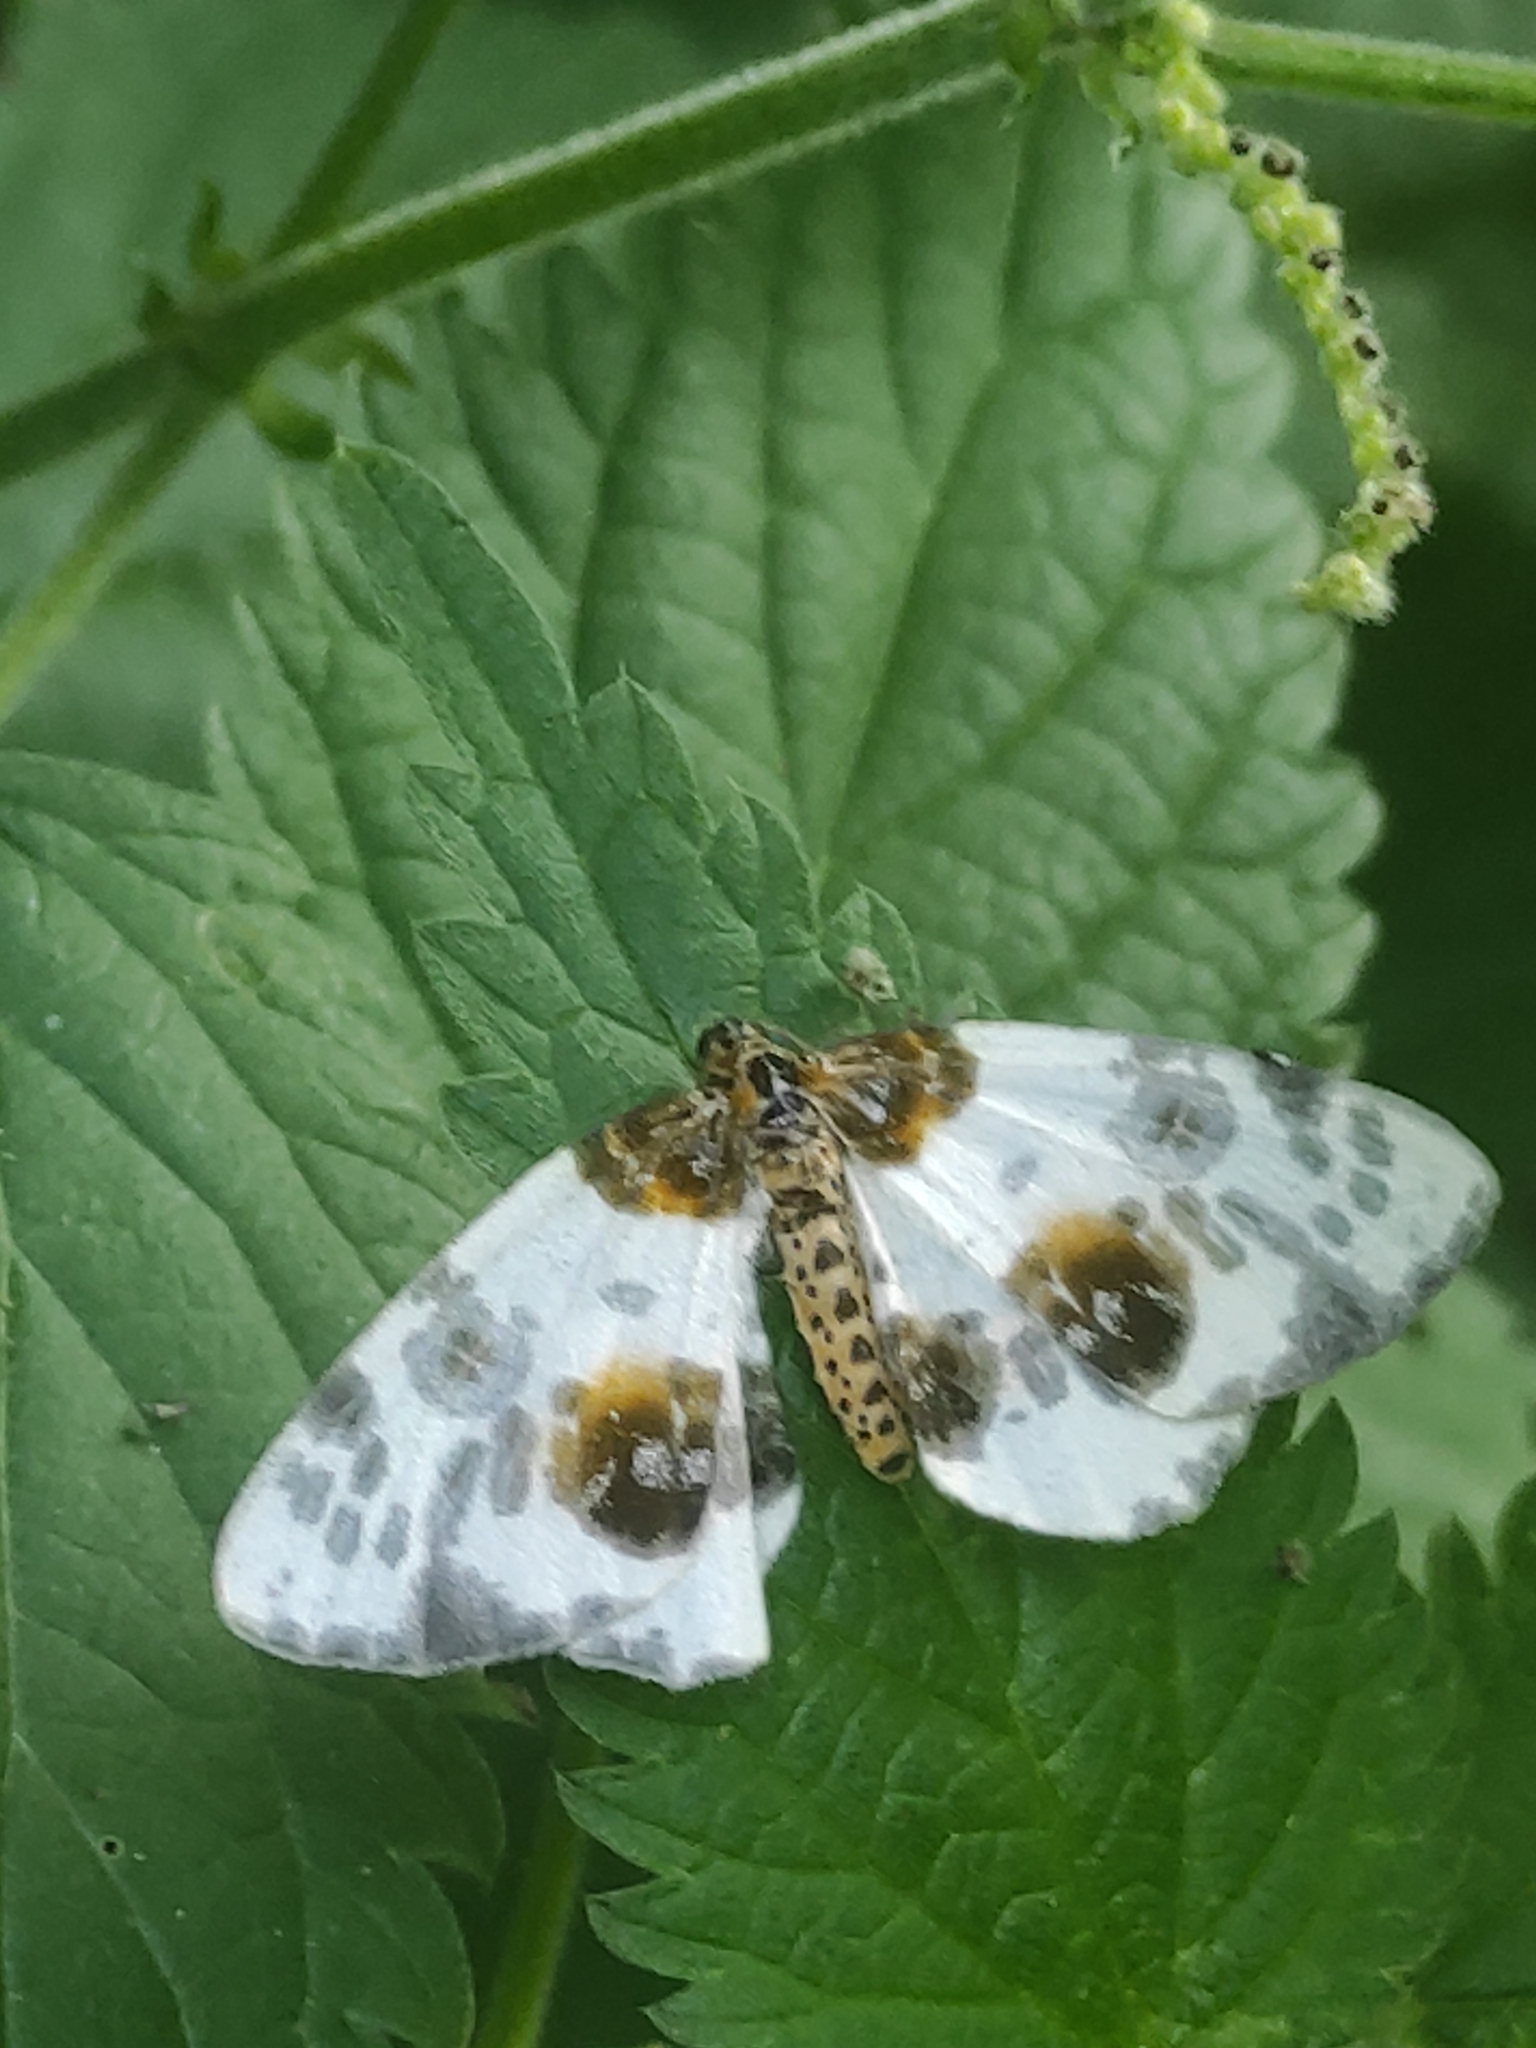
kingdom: Animalia
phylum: Arthropoda
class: Insecta
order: Lepidoptera
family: Geometridae
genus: Abraxas
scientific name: Abraxas sylvata
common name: Clouded magpie
